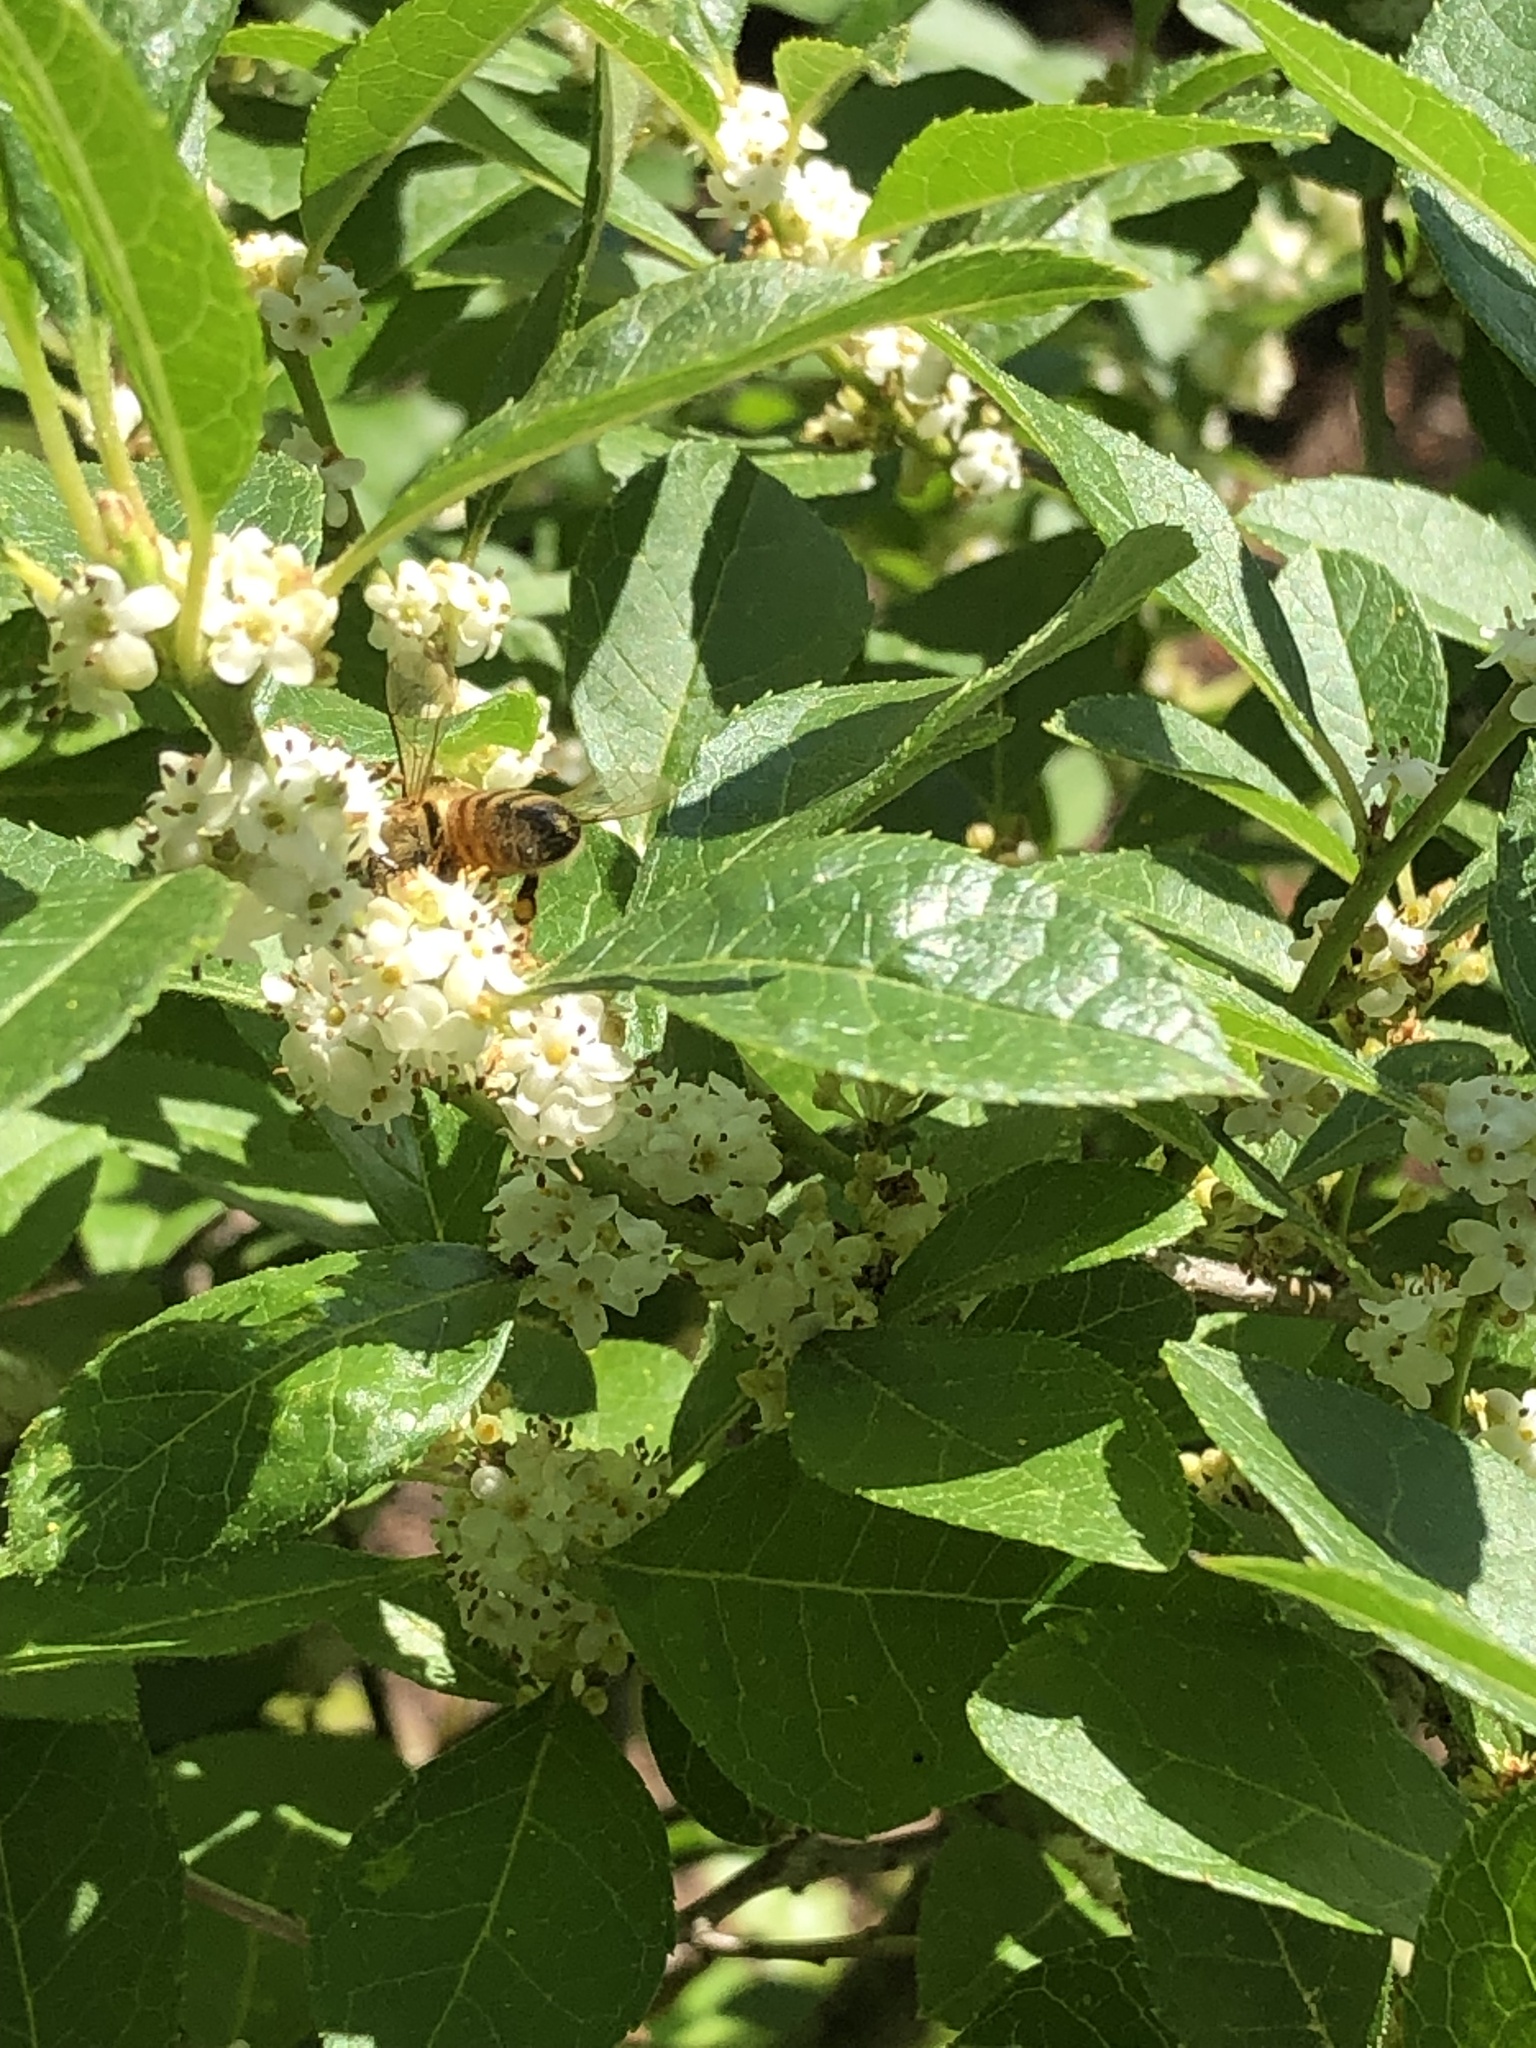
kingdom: Animalia
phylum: Arthropoda
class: Insecta
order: Hymenoptera
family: Apidae
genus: Apis
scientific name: Apis mellifera
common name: Honey bee
